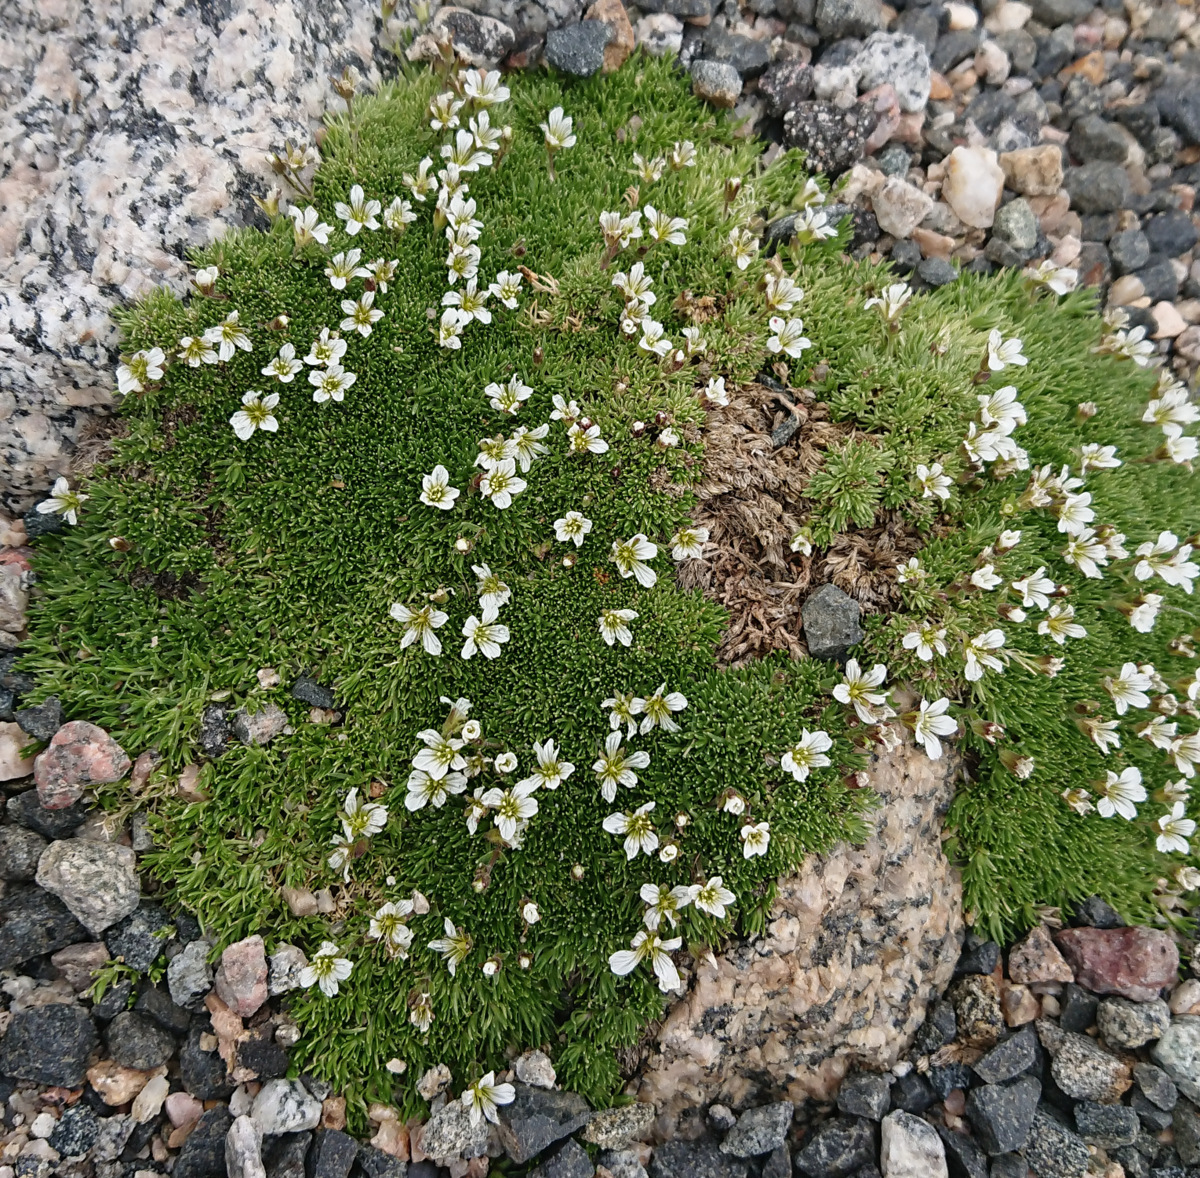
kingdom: Plantae
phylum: Tracheophyta
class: Magnoliopsida
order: Caryophyllales
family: Caryophyllaceae
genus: Cherleria
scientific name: Cherleria obtusiloba
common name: Alpine stitchwort
